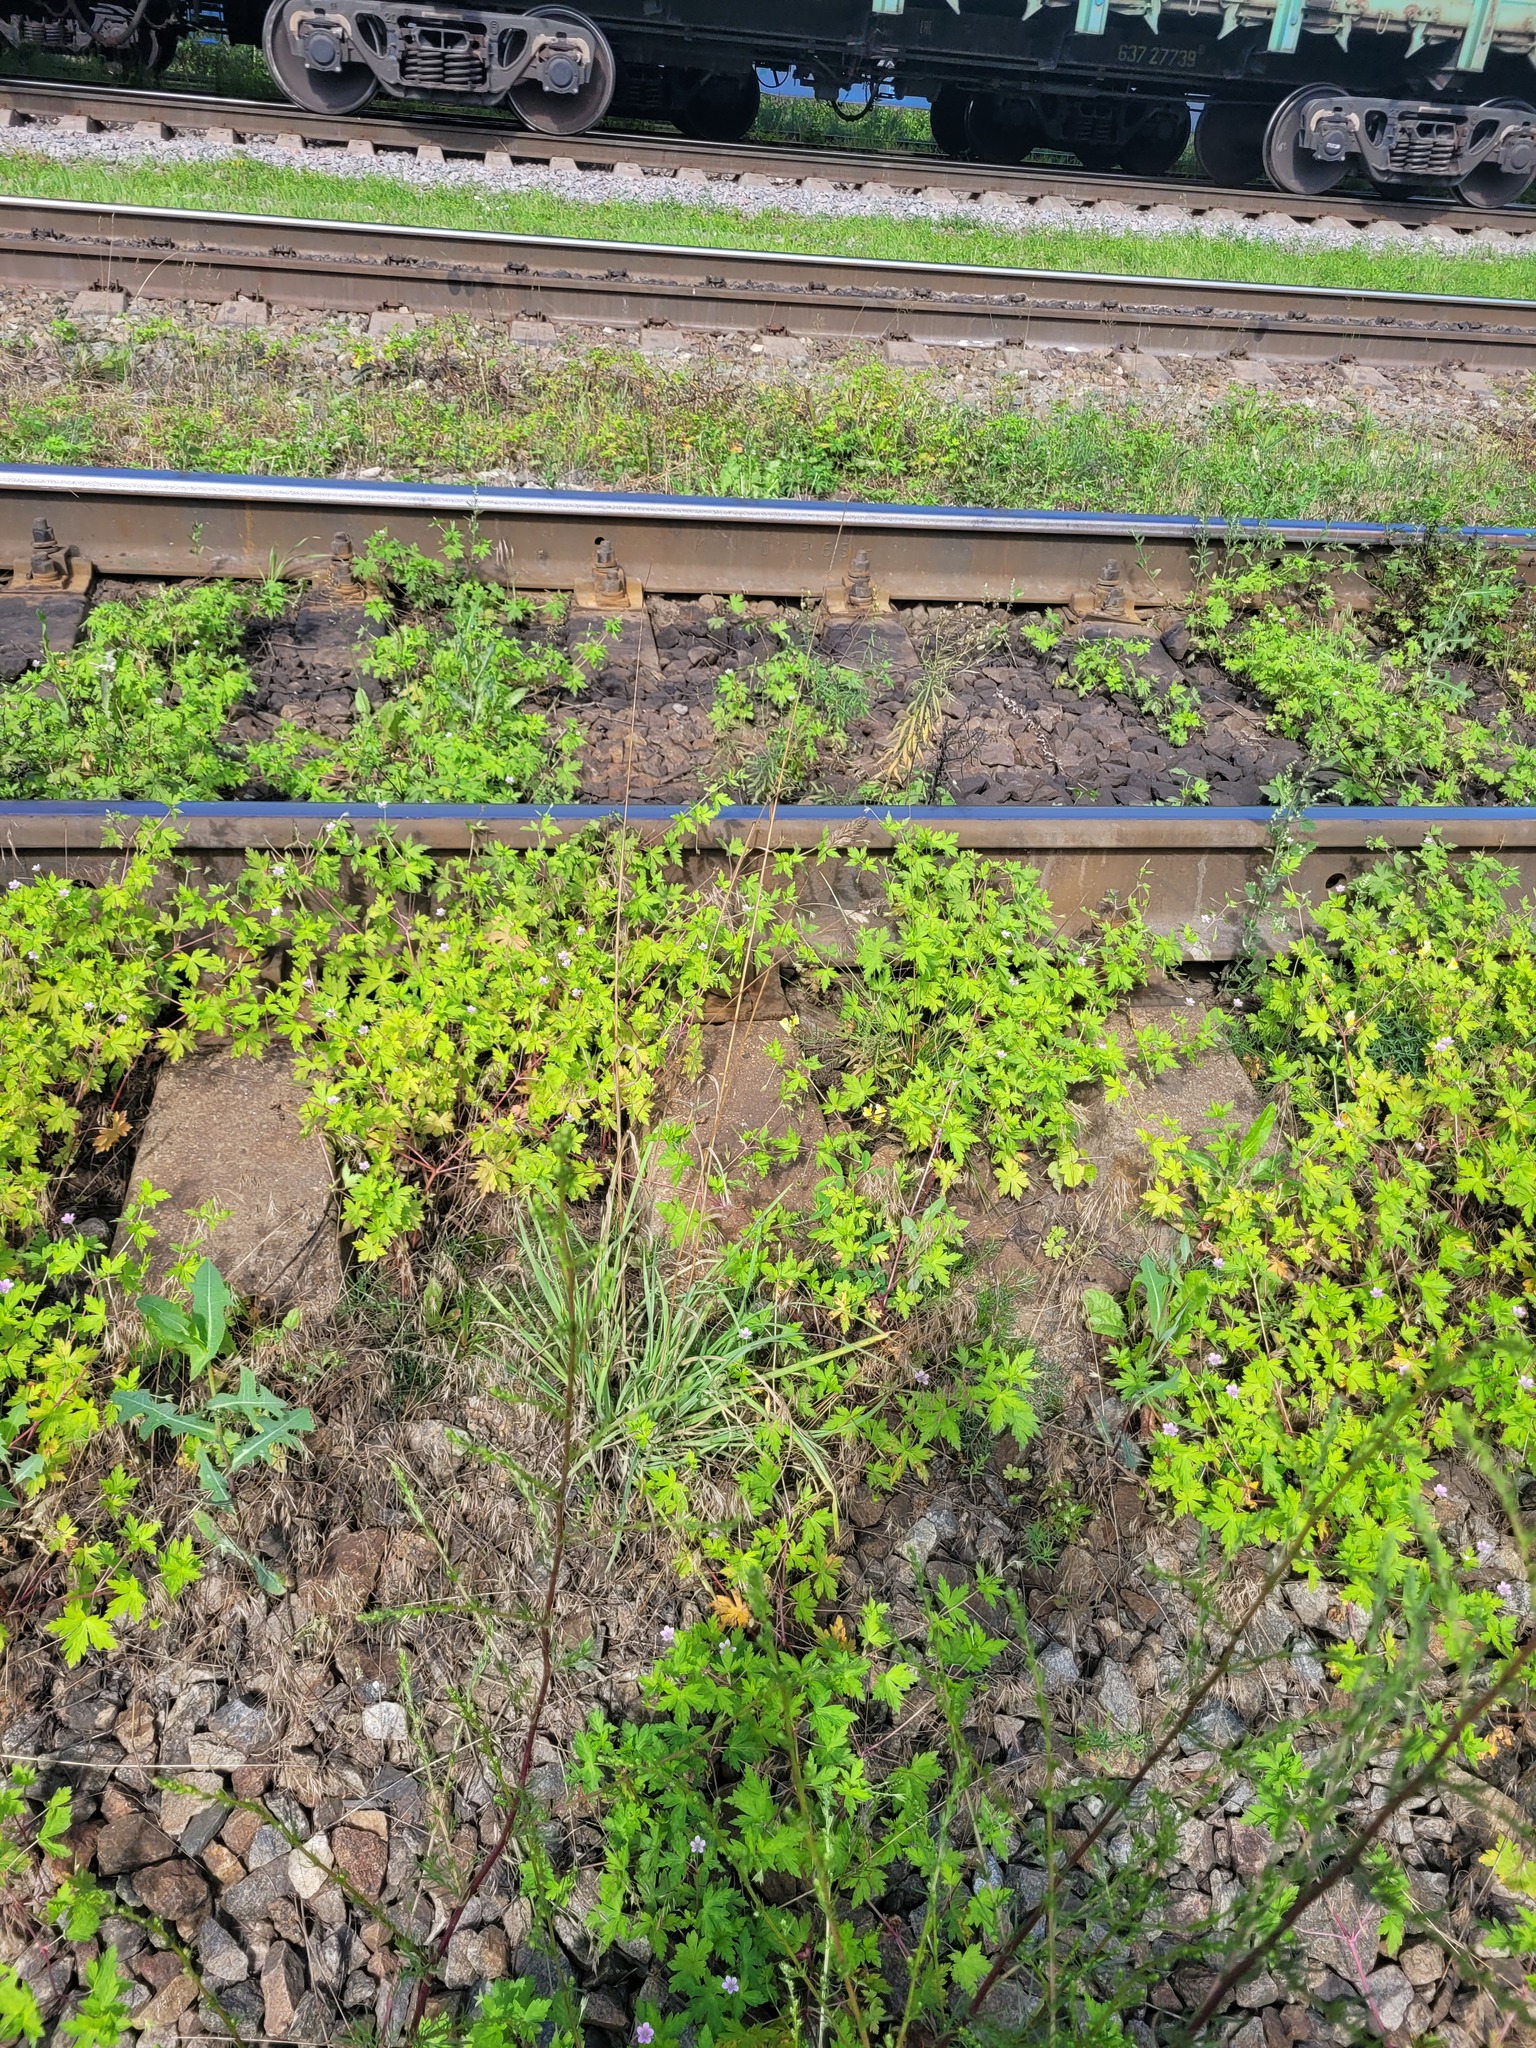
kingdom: Plantae
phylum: Tracheophyta
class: Liliopsida
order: Poales
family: Poaceae
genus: Dactylis
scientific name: Dactylis glomerata
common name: Orchardgrass
